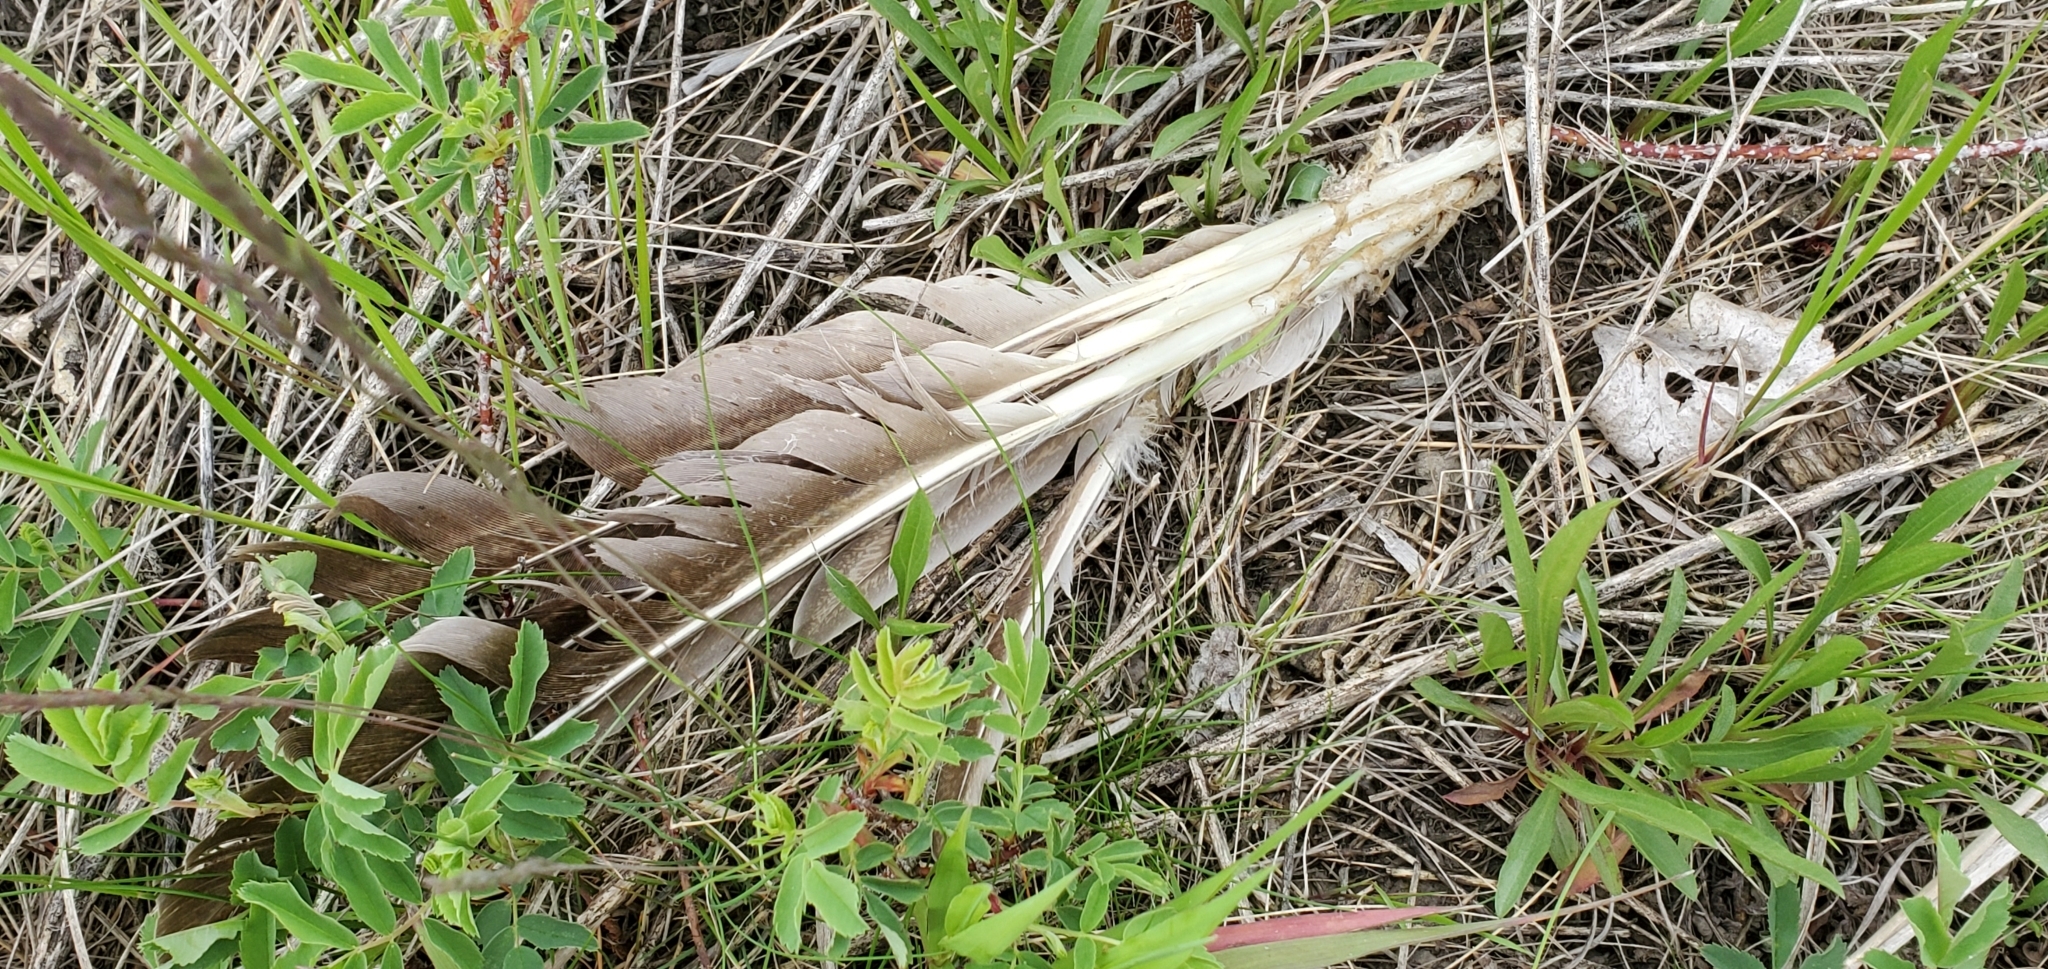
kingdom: Animalia
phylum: Chordata
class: Aves
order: Anseriformes
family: Anatidae
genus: Branta
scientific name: Branta canadensis
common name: Canada goose
